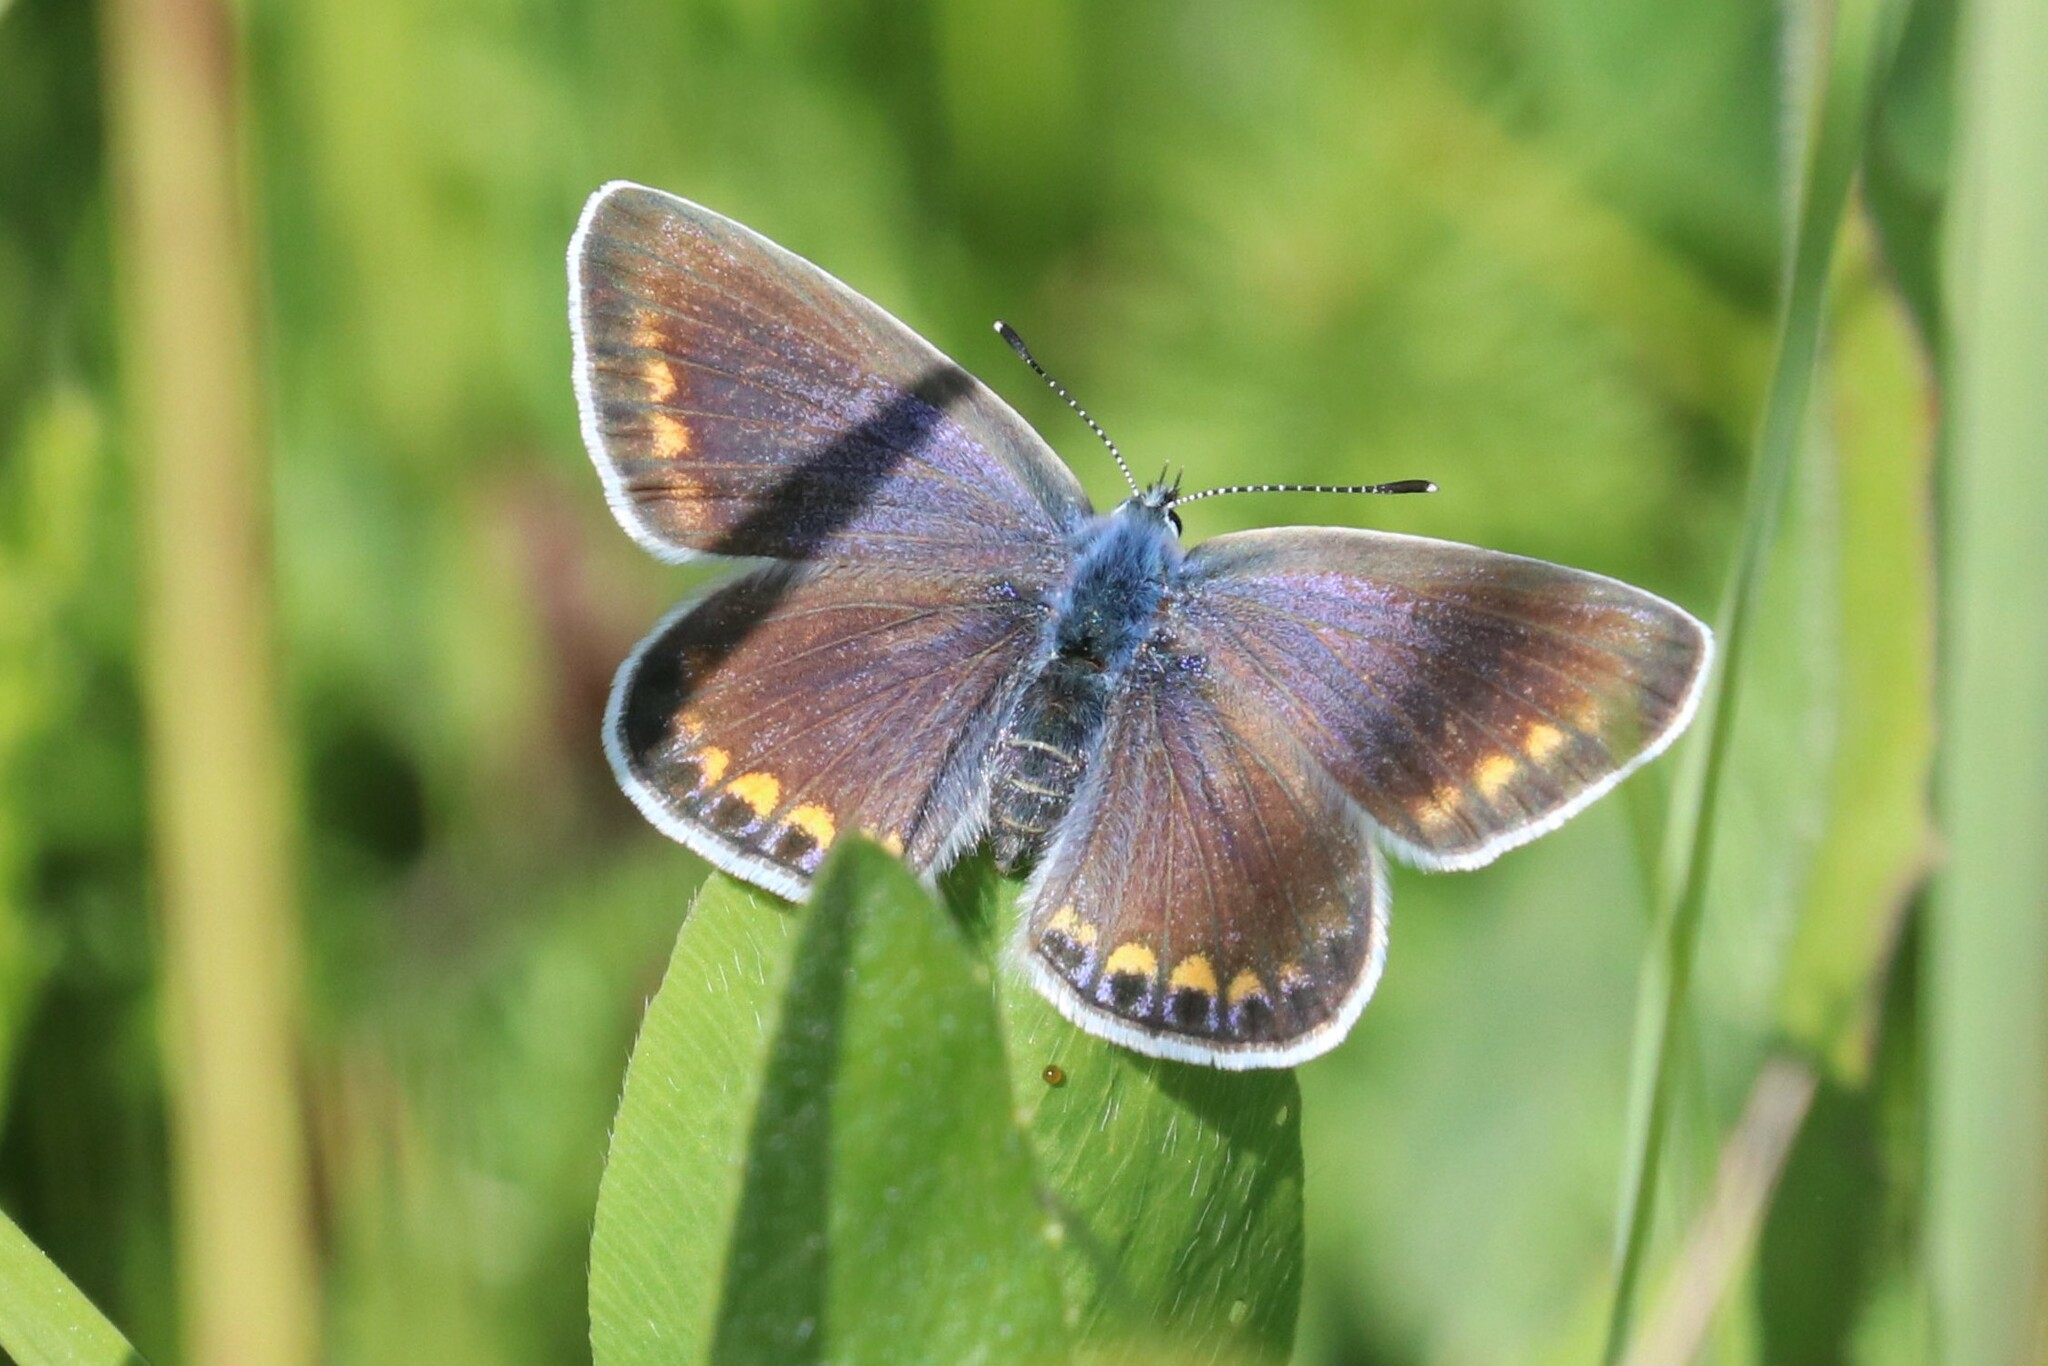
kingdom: Animalia
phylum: Arthropoda
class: Insecta
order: Lepidoptera
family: Lycaenidae
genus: Polyommatus
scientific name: Polyommatus icarus
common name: Common blue
